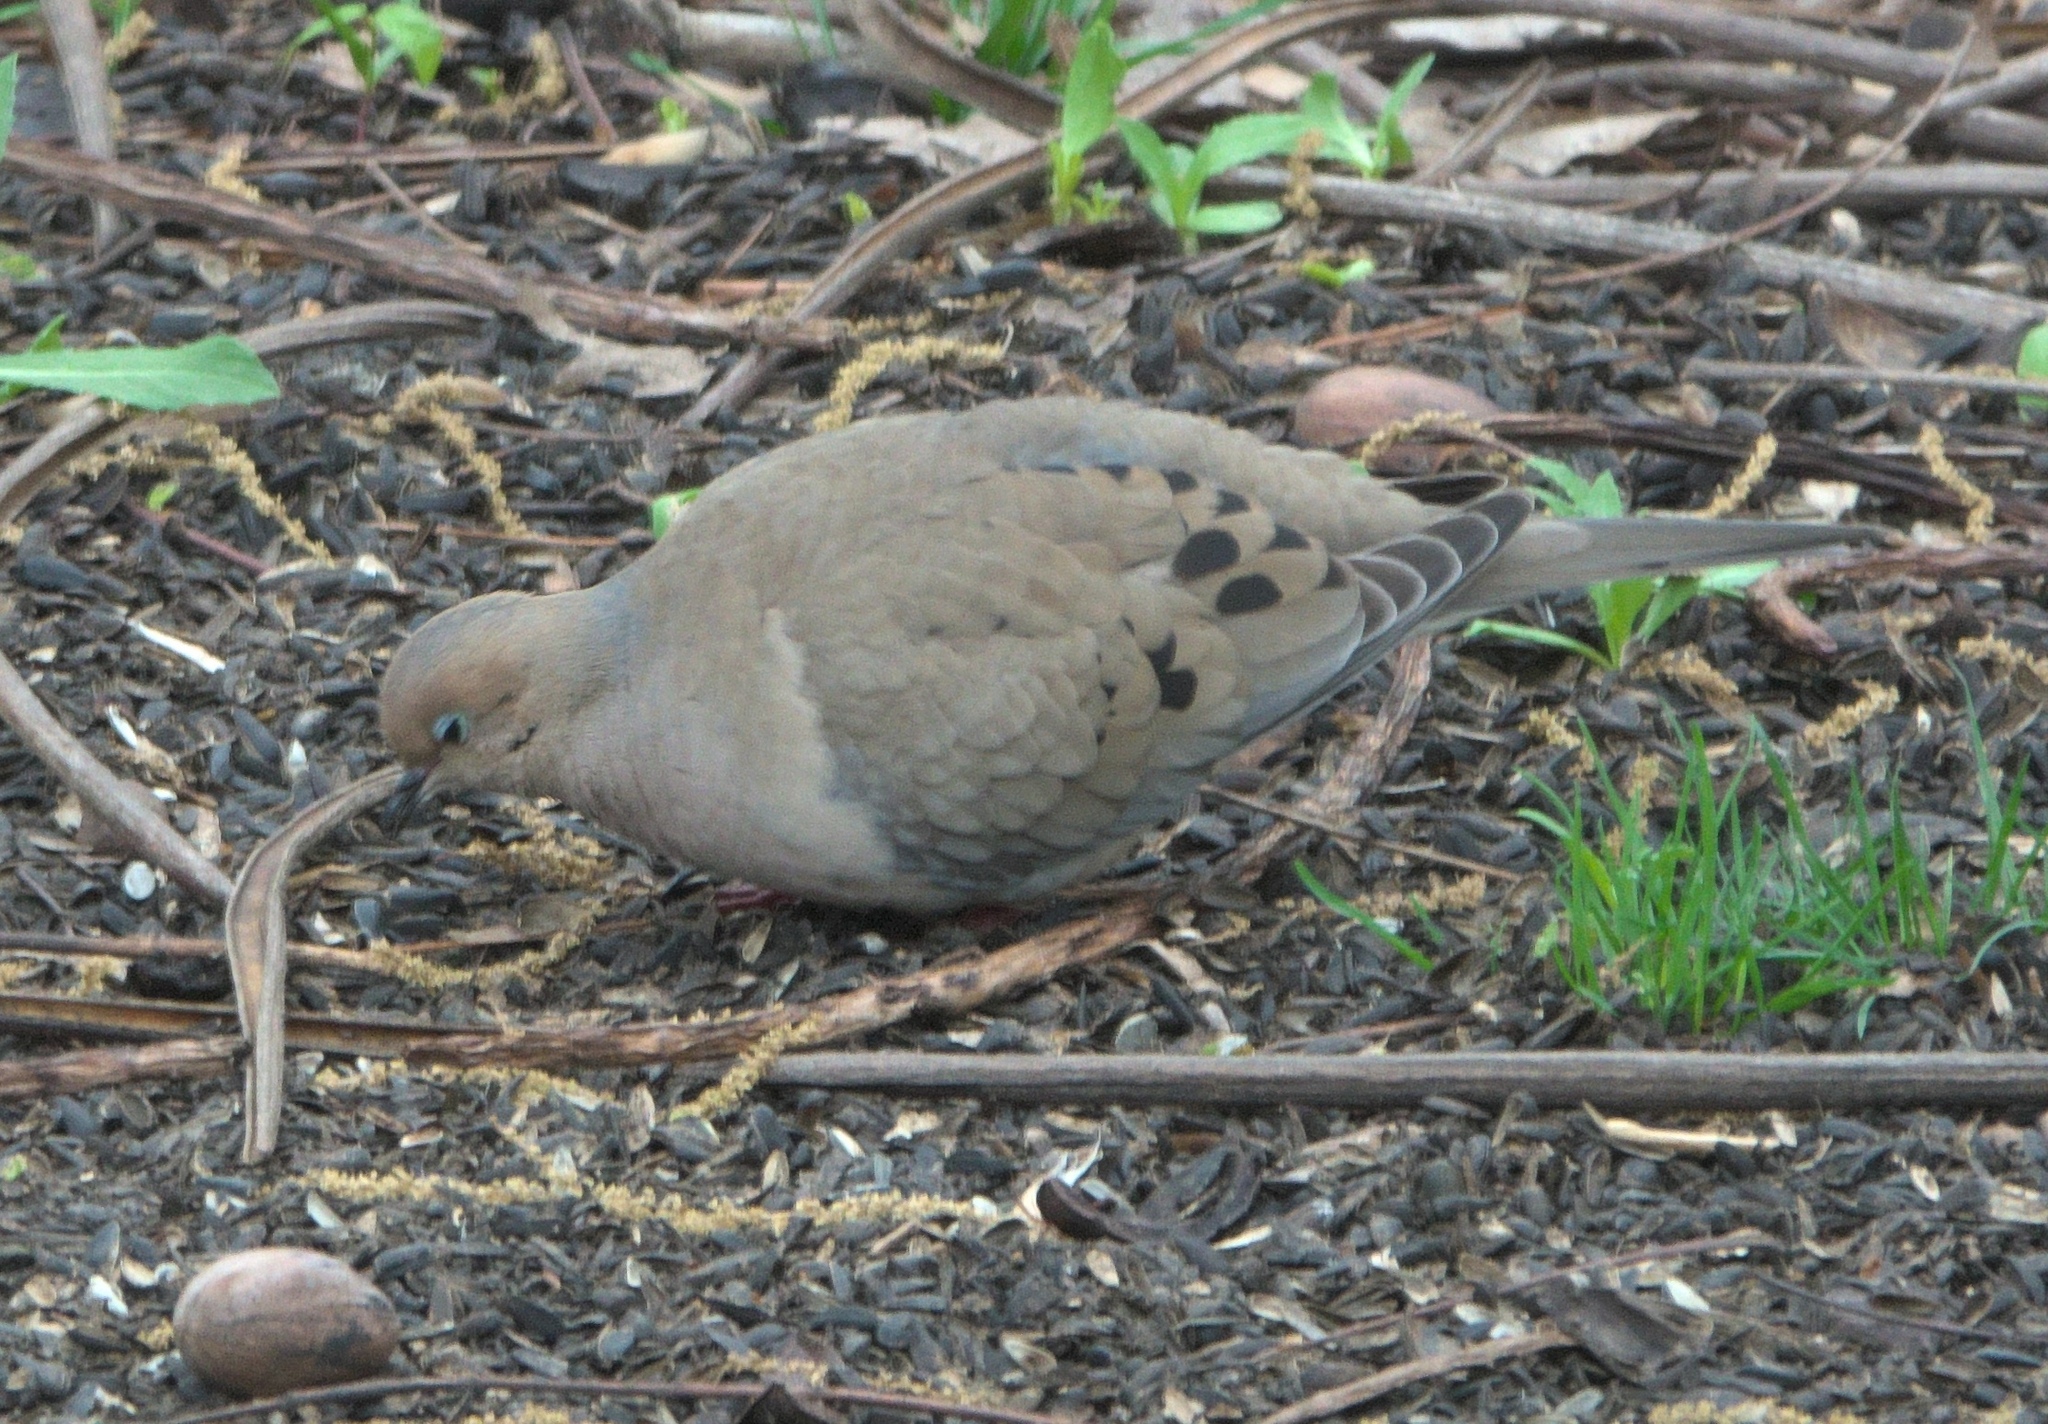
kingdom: Animalia
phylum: Chordata
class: Aves
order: Columbiformes
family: Columbidae
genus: Zenaida
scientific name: Zenaida macroura
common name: Mourning dove
